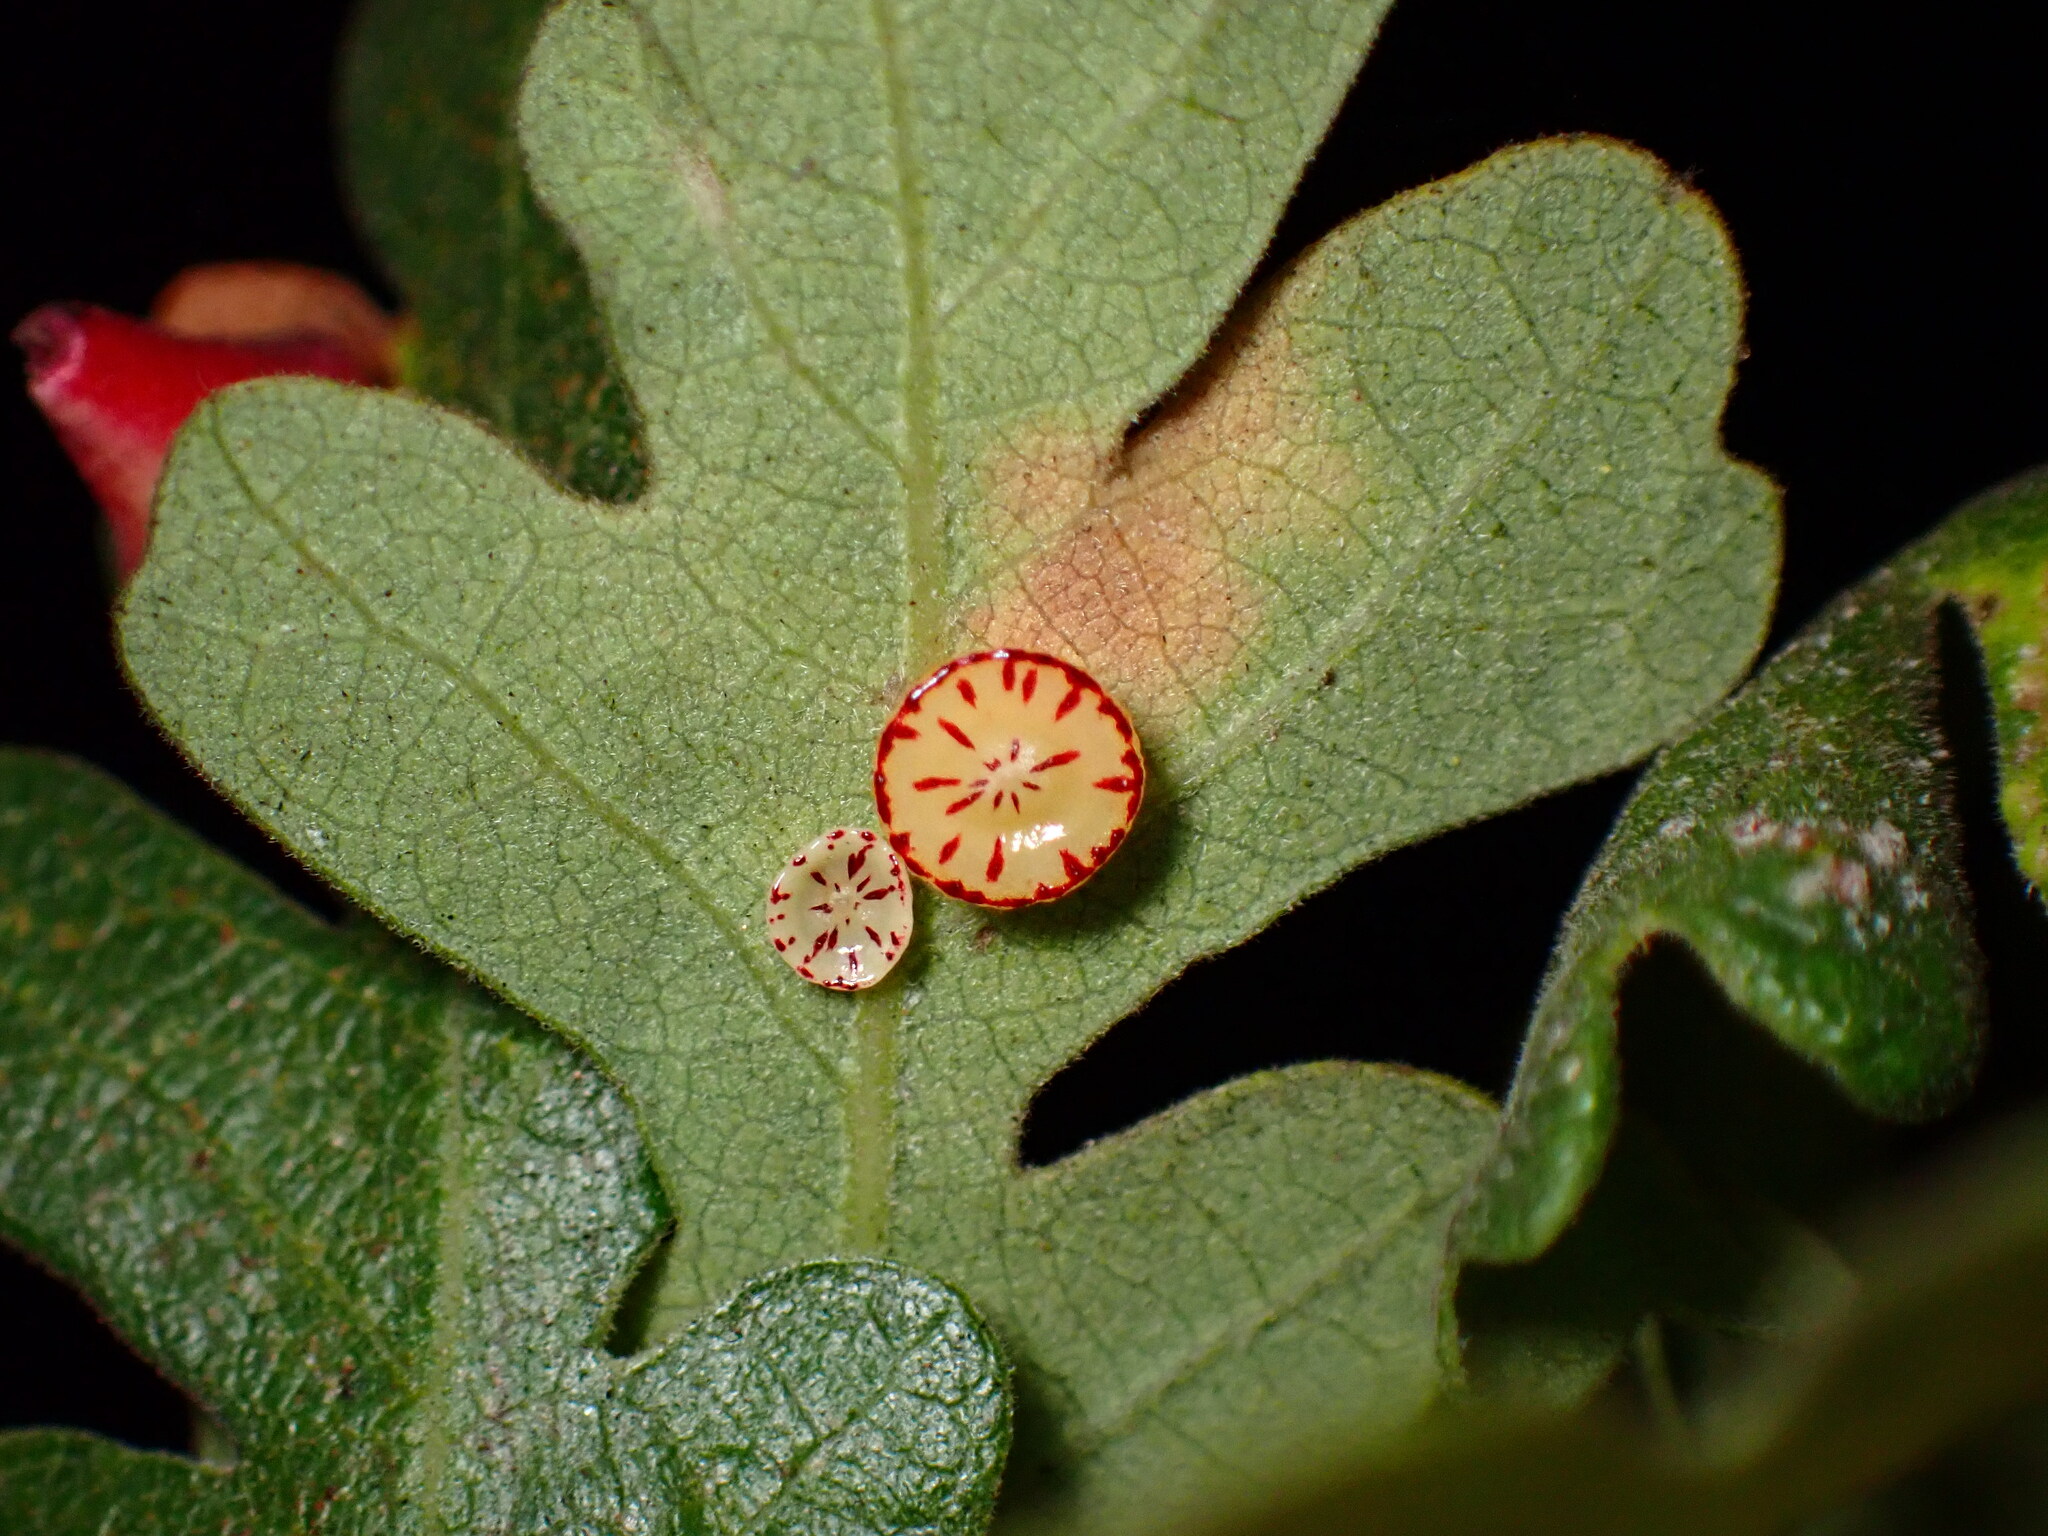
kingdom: Animalia
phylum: Arthropoda
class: Insecta
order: Hymenoptera
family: Cynipidae
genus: Andricus
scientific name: Andricus
